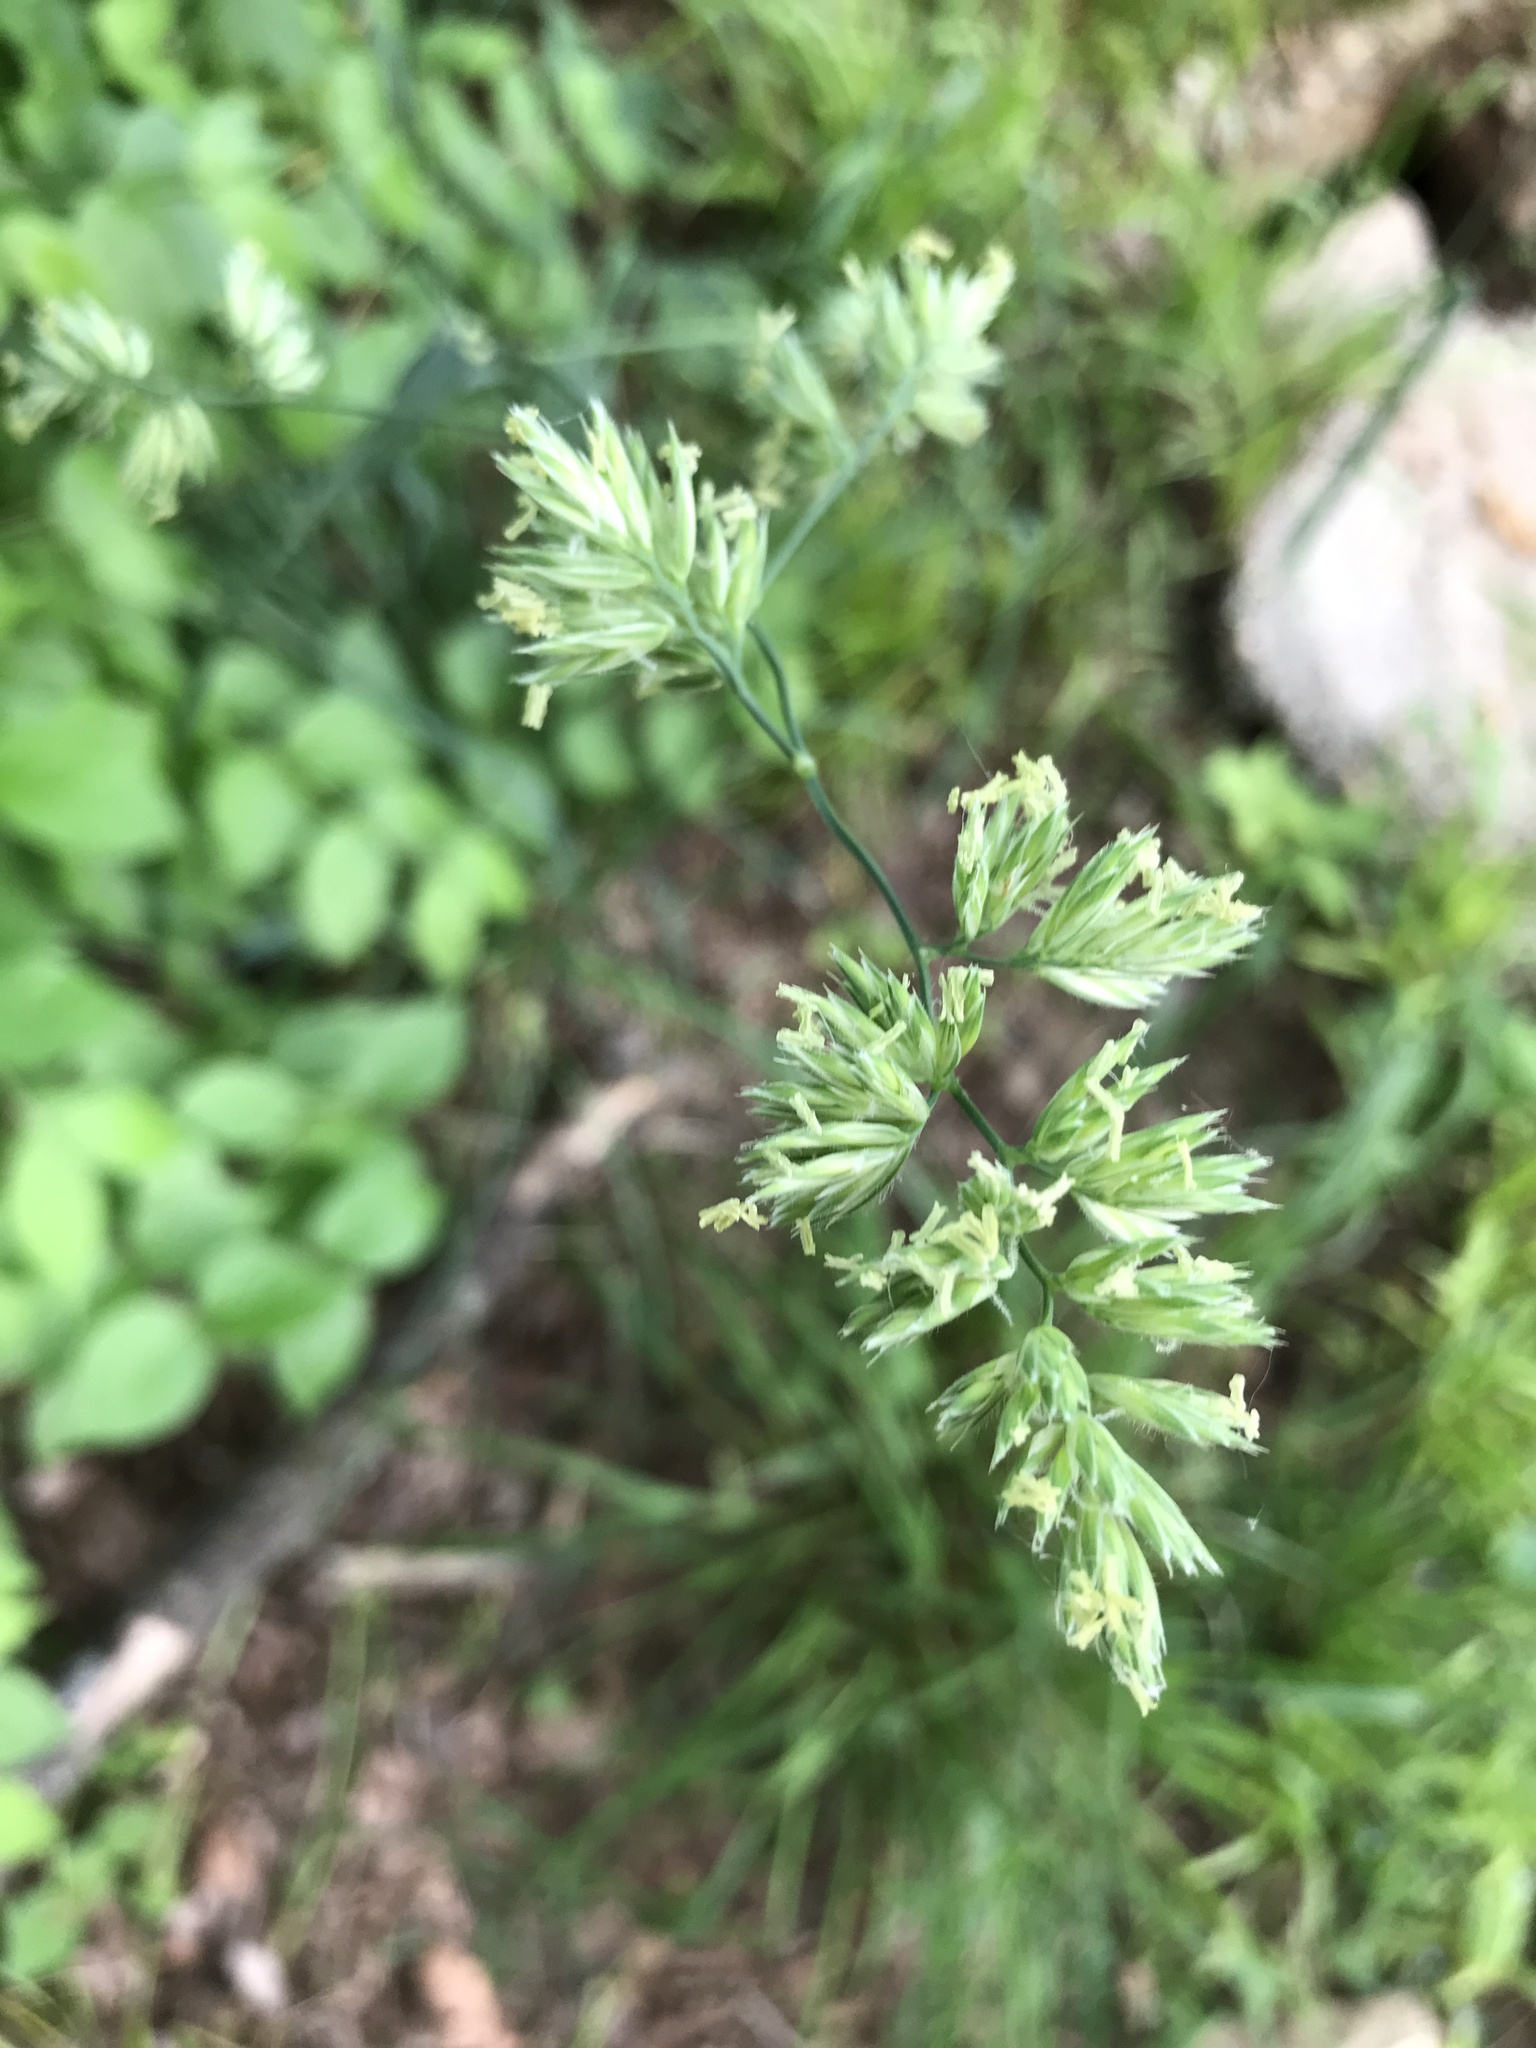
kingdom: Plantae
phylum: Tracheophyta
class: Liliopsida
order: Poales
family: Poaceae
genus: Dactylis
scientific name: Dactylis glomerata
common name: Orchardgrass
